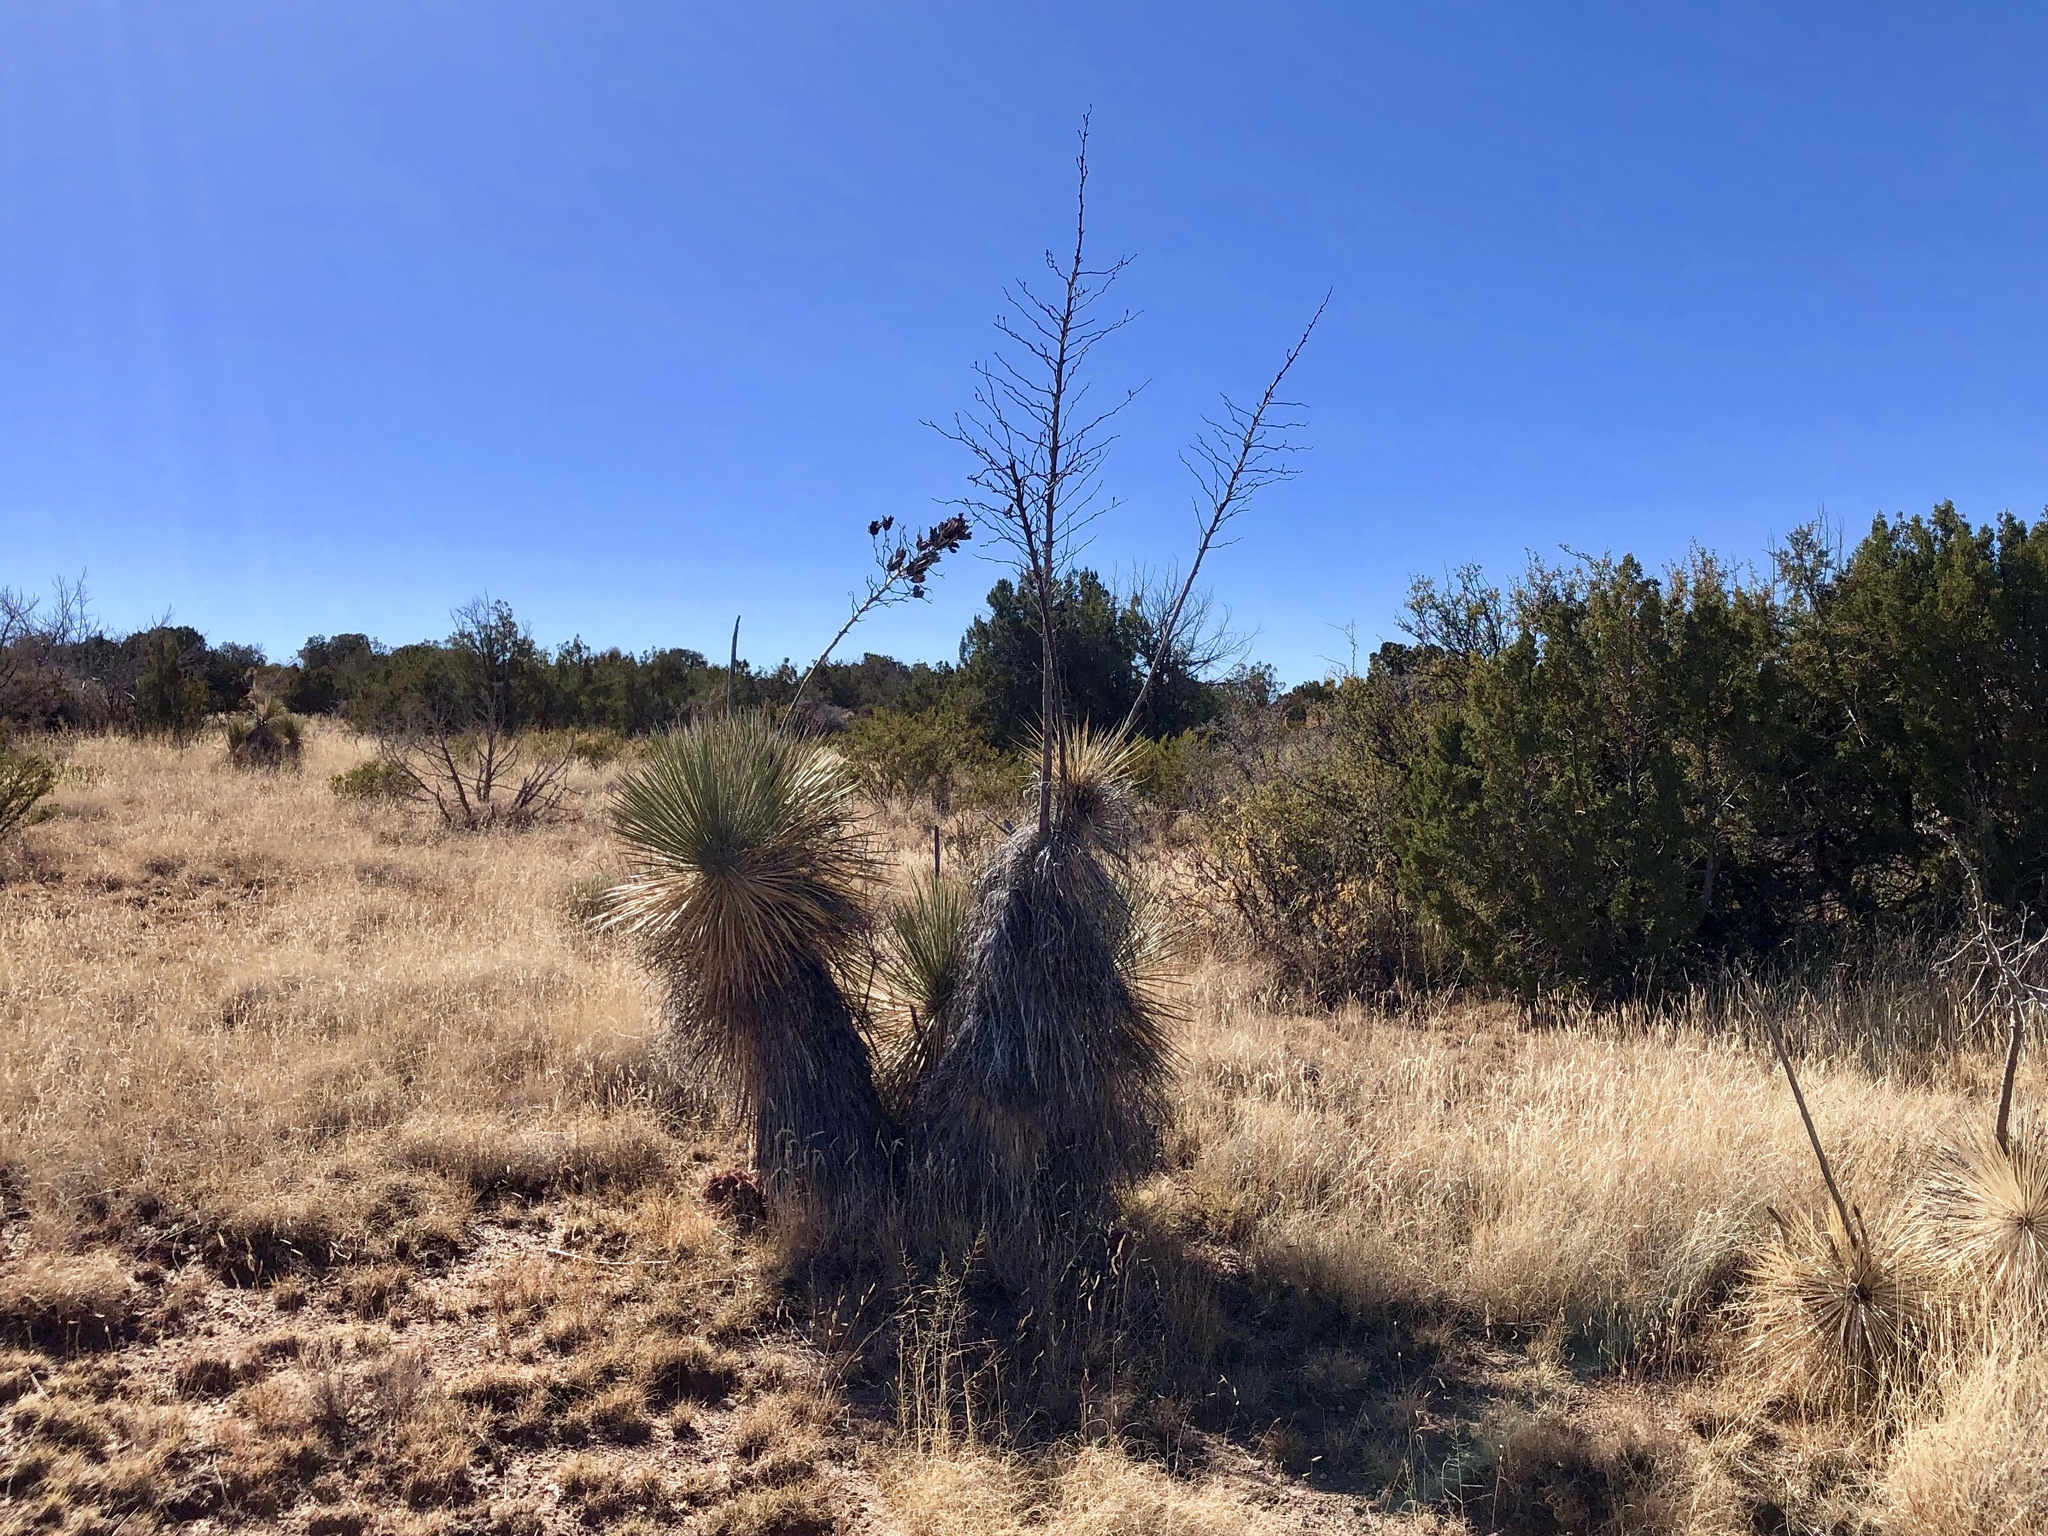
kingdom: Plantae
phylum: Tracheophyta
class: Liliopsida
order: Asparagales
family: Asparagaceae
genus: Yucca
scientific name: Yucca elata
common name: Palmella
